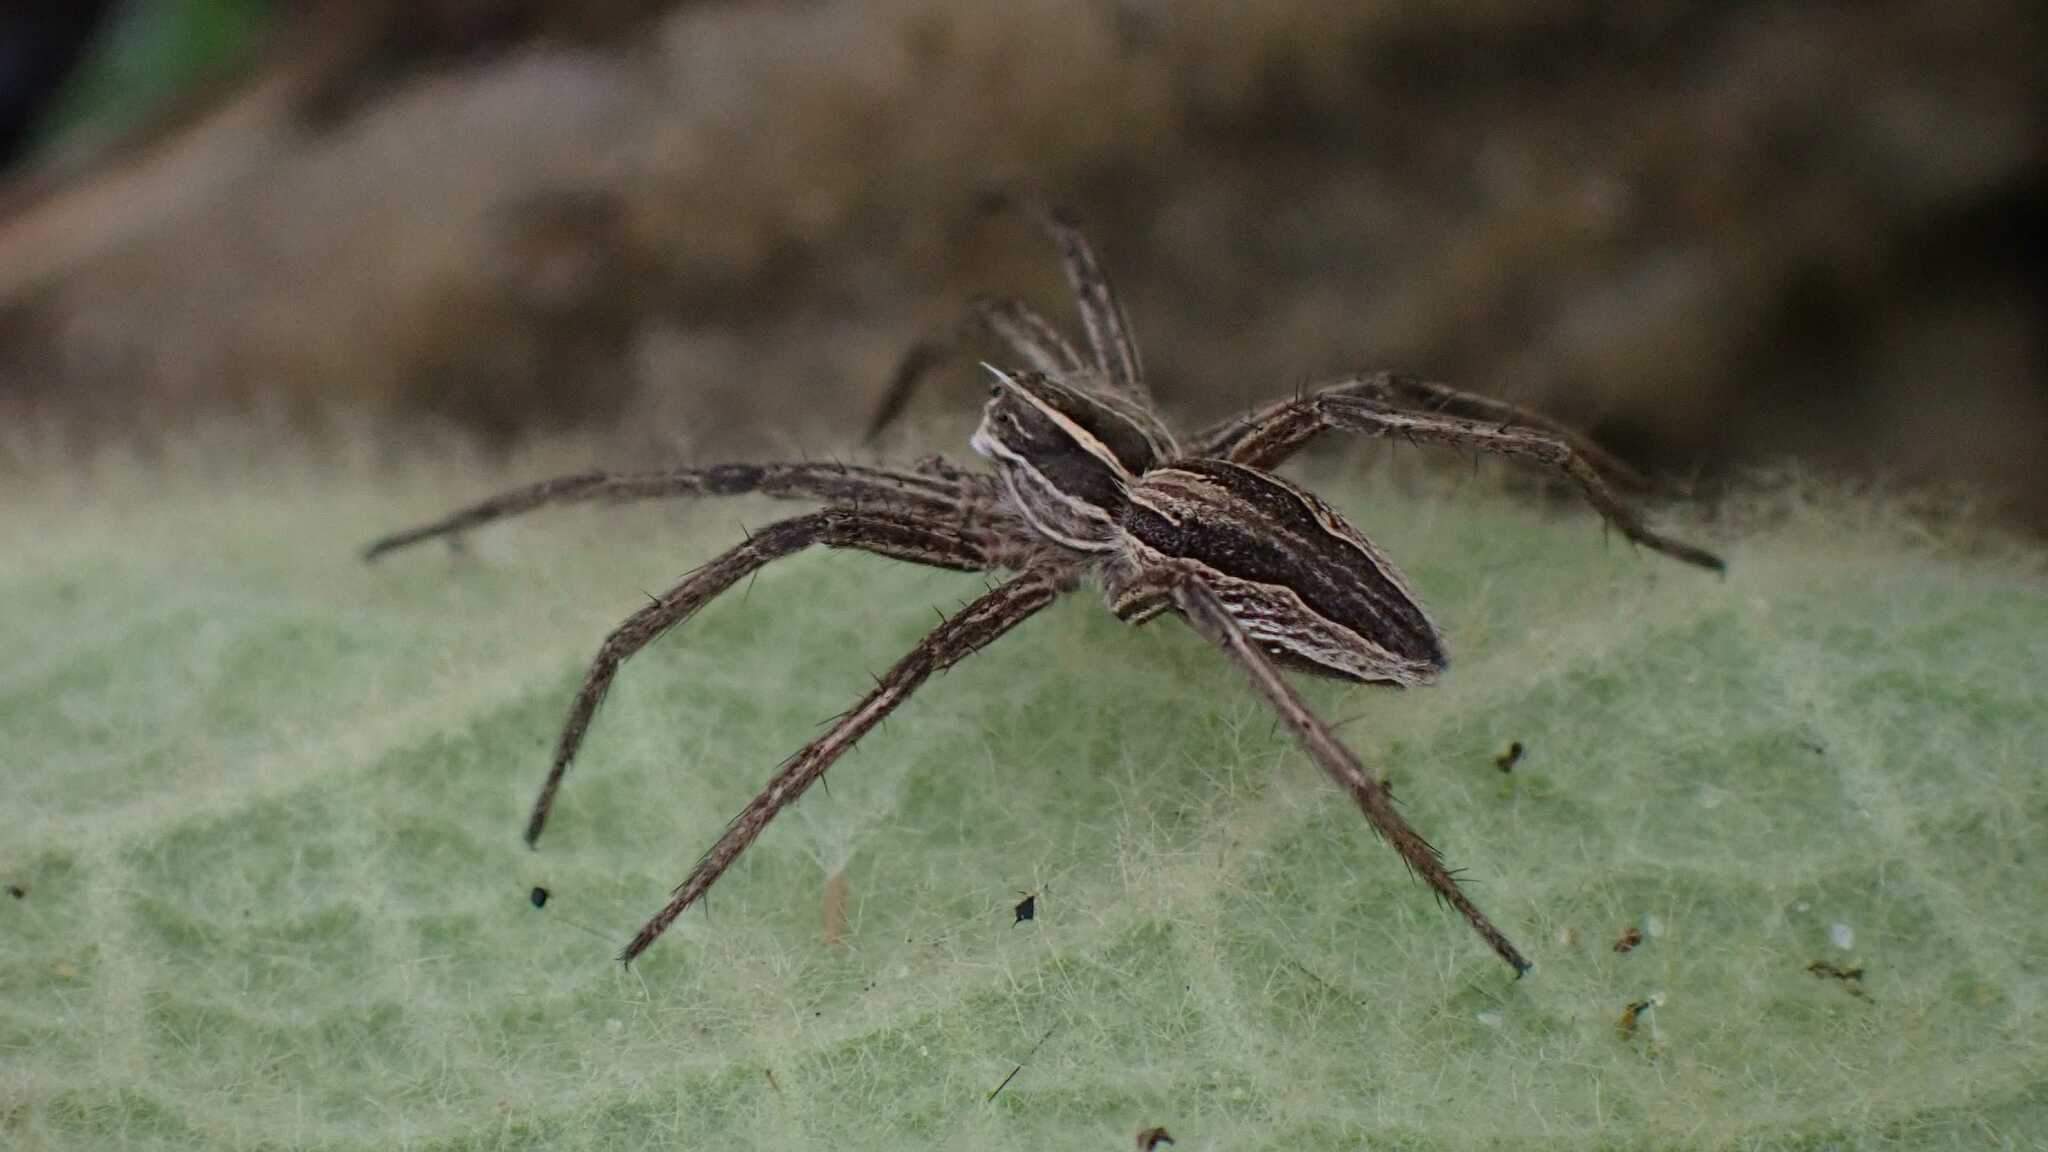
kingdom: Animalia
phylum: Arthropoda
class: Arachnida
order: Araneae
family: Pisauridae
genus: Pisaura
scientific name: Pisaura mirabilis
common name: Tent spider
